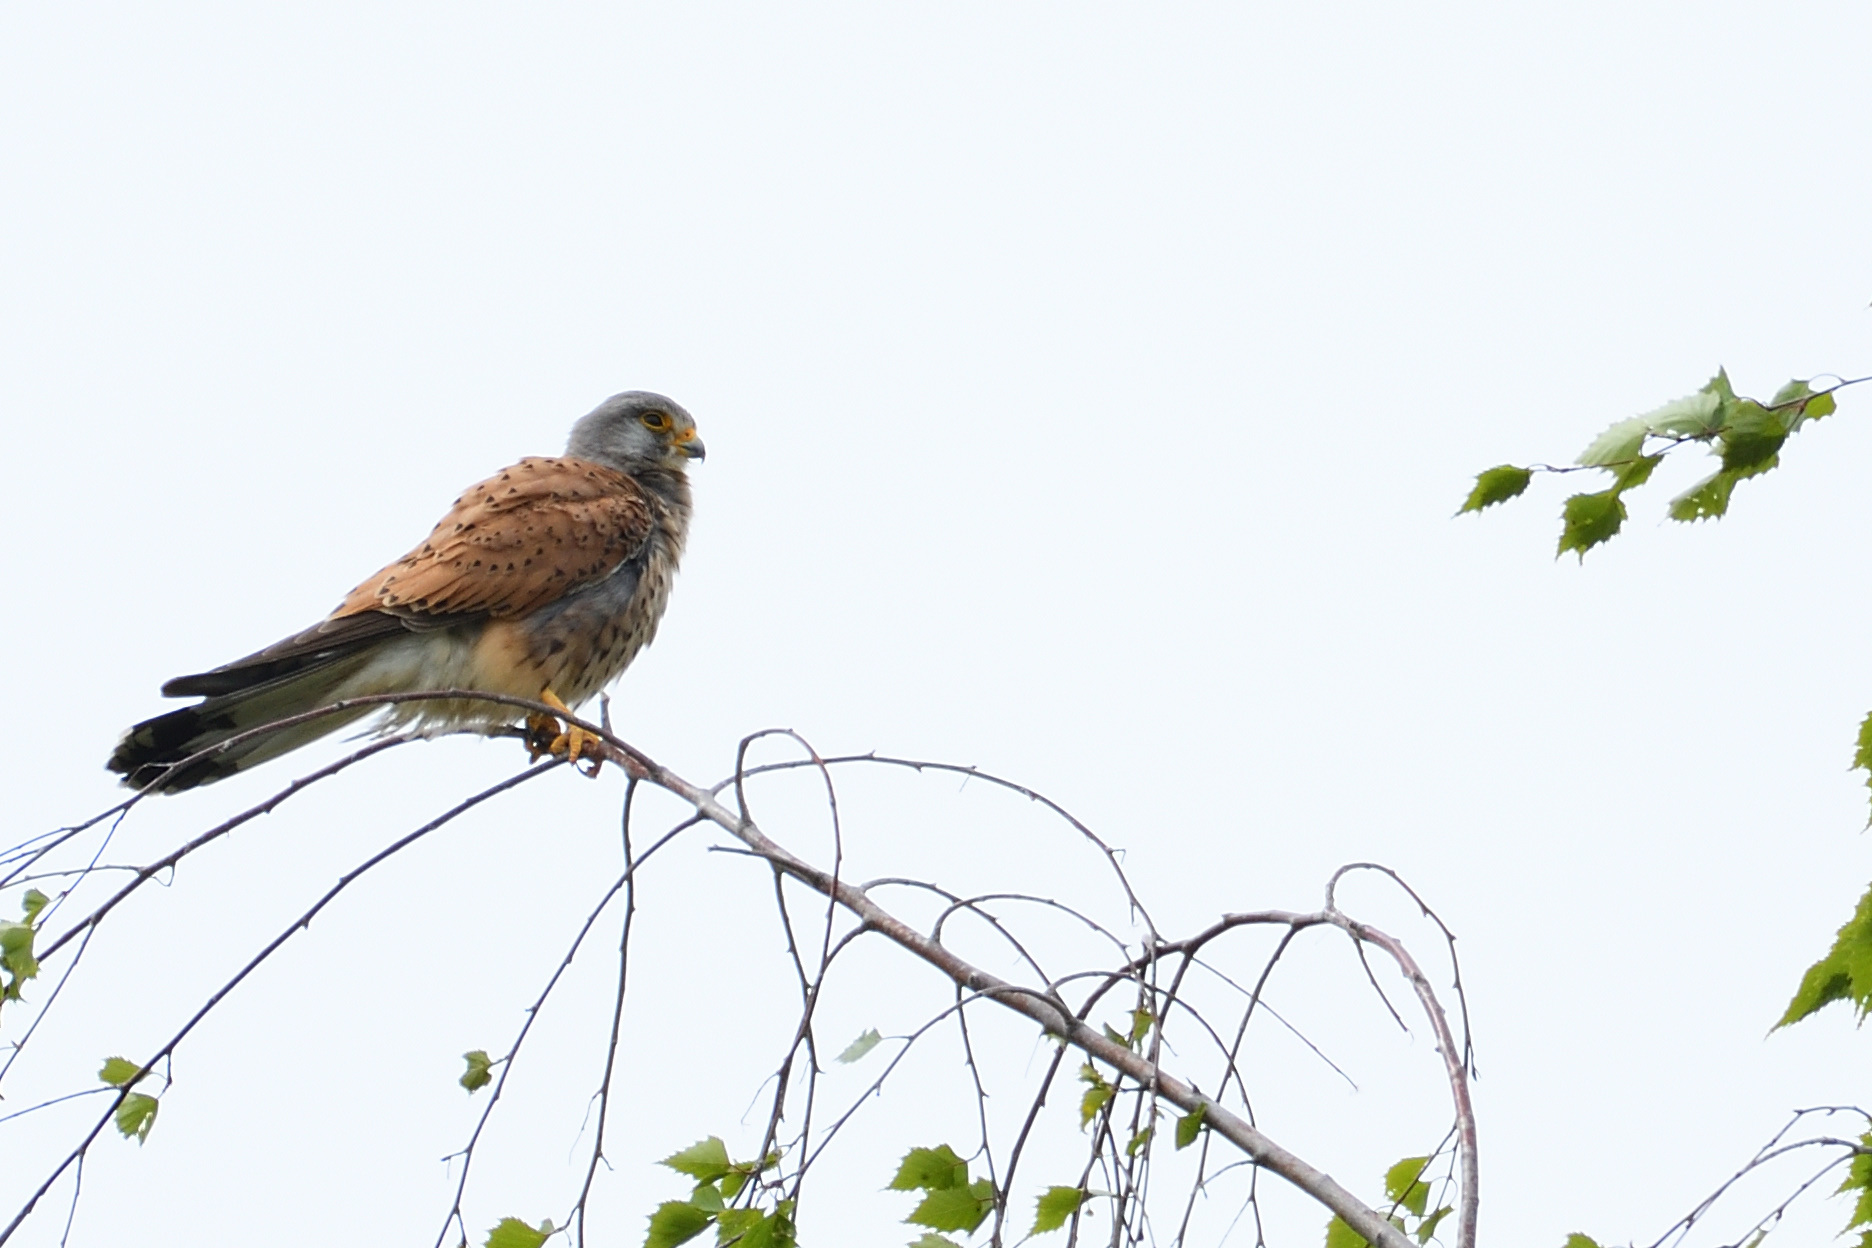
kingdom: Animalia
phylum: Chordata
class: Aves
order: Falconiformes
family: Falconidae
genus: Falco
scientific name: Falco tinnunculus
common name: Common kestrel
